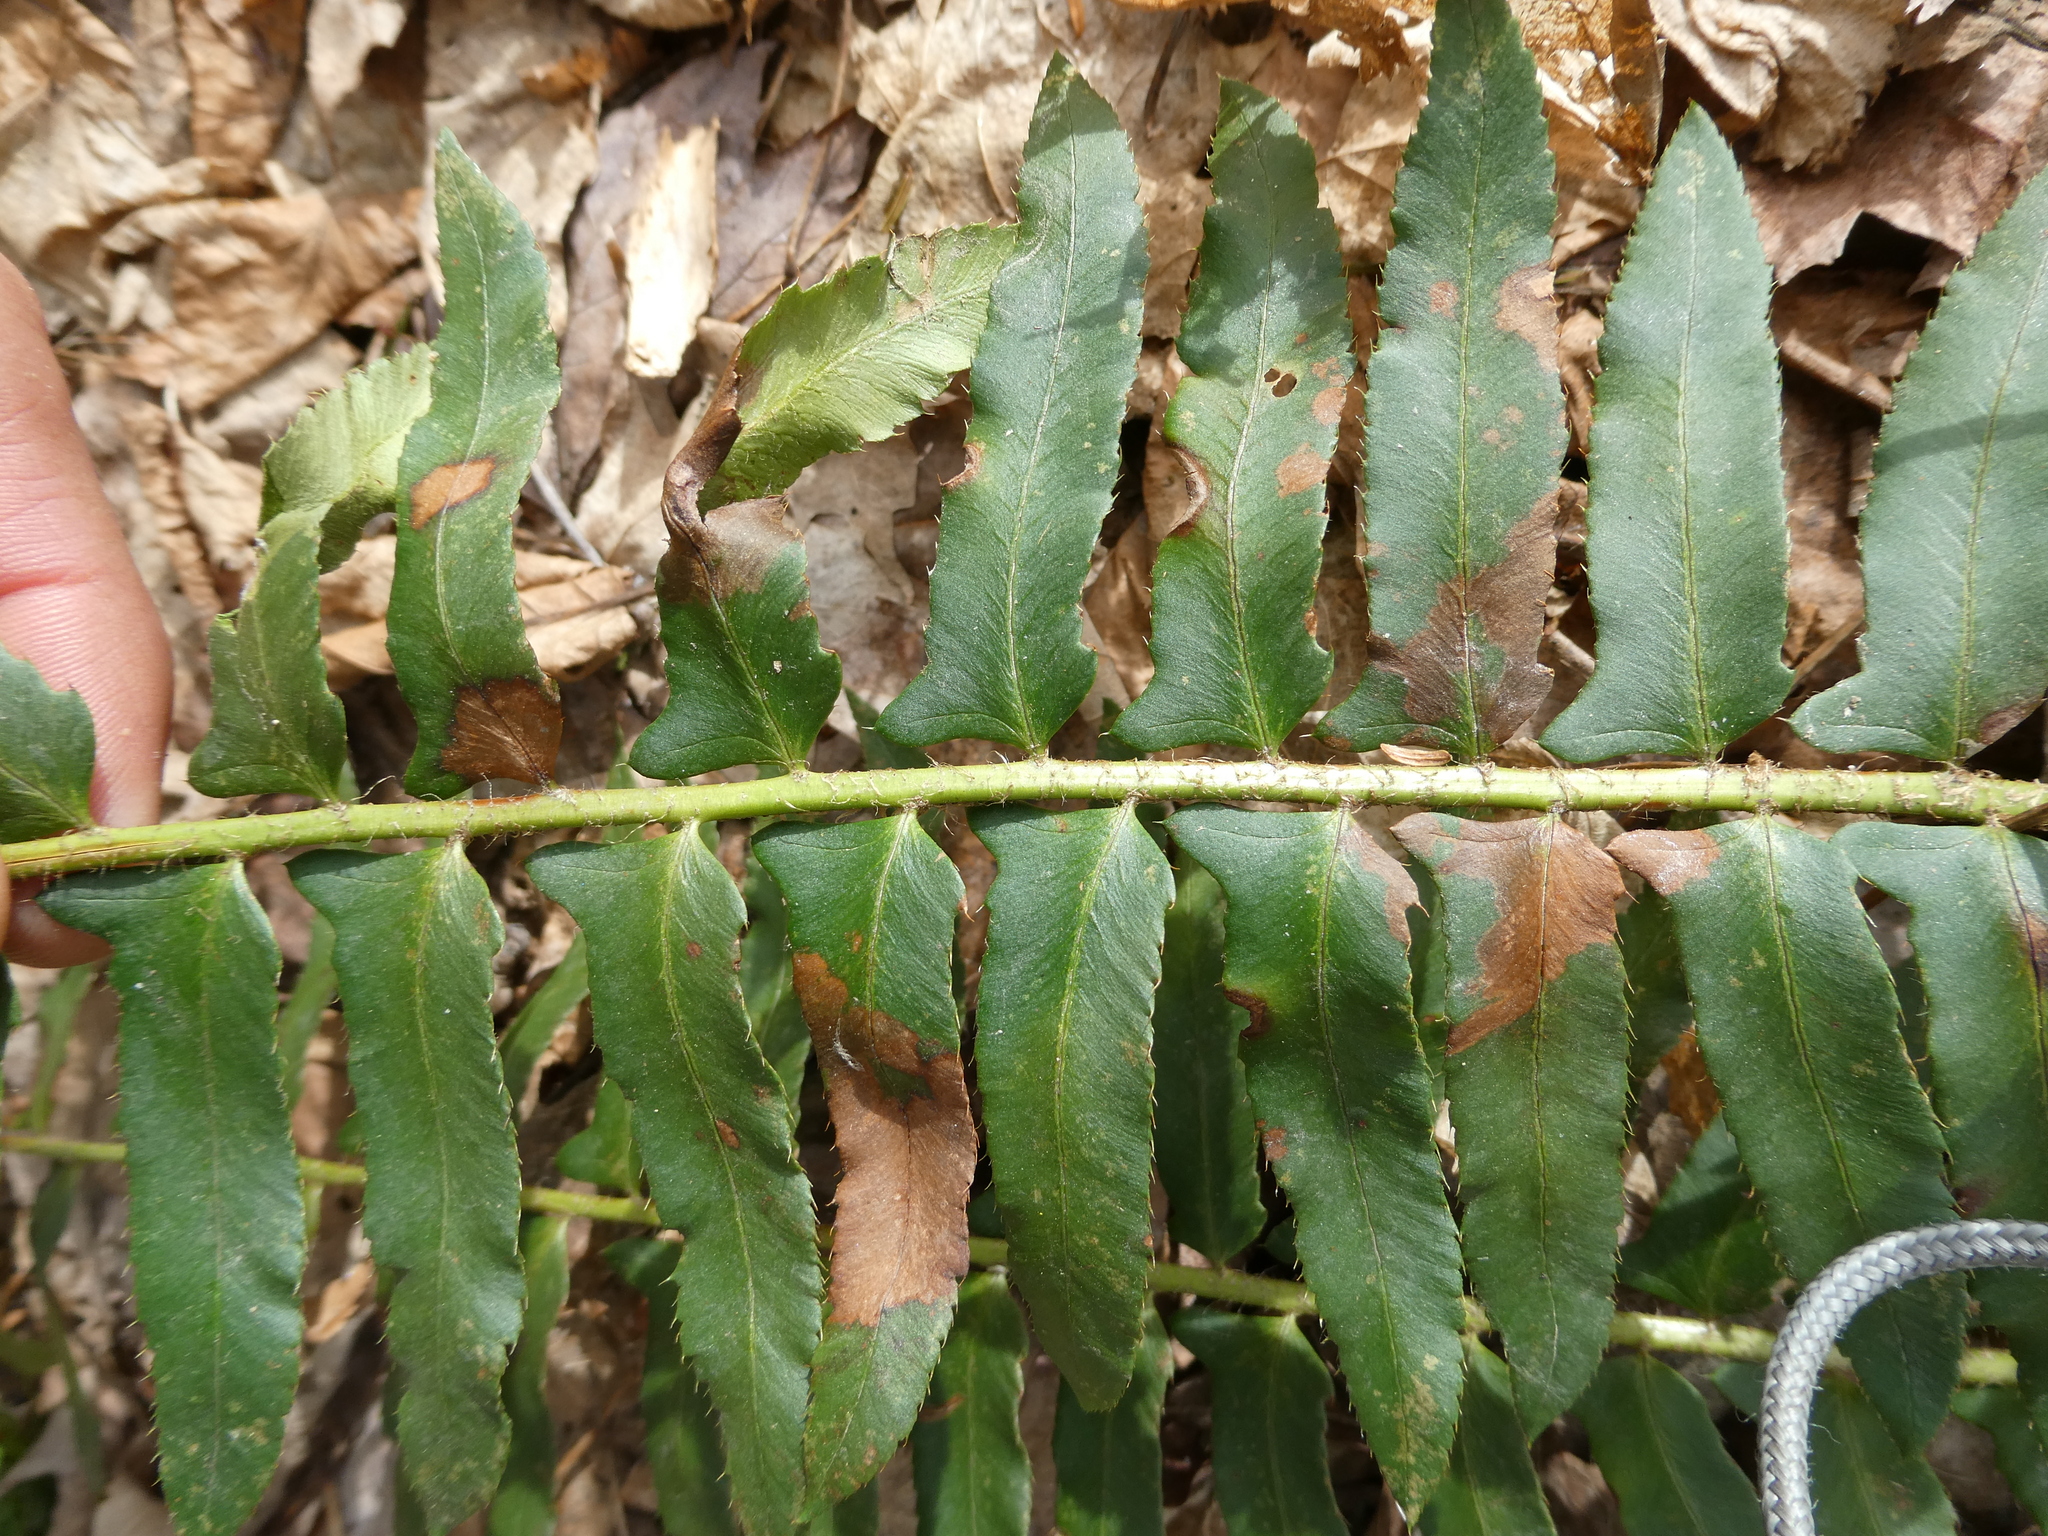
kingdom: Plantae
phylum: Tracheophyta
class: Polypodiopsida
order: Polypodiales
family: Dryopteridaceae
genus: Polystichum
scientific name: Polystichum acrostichoides
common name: Christmas fern
